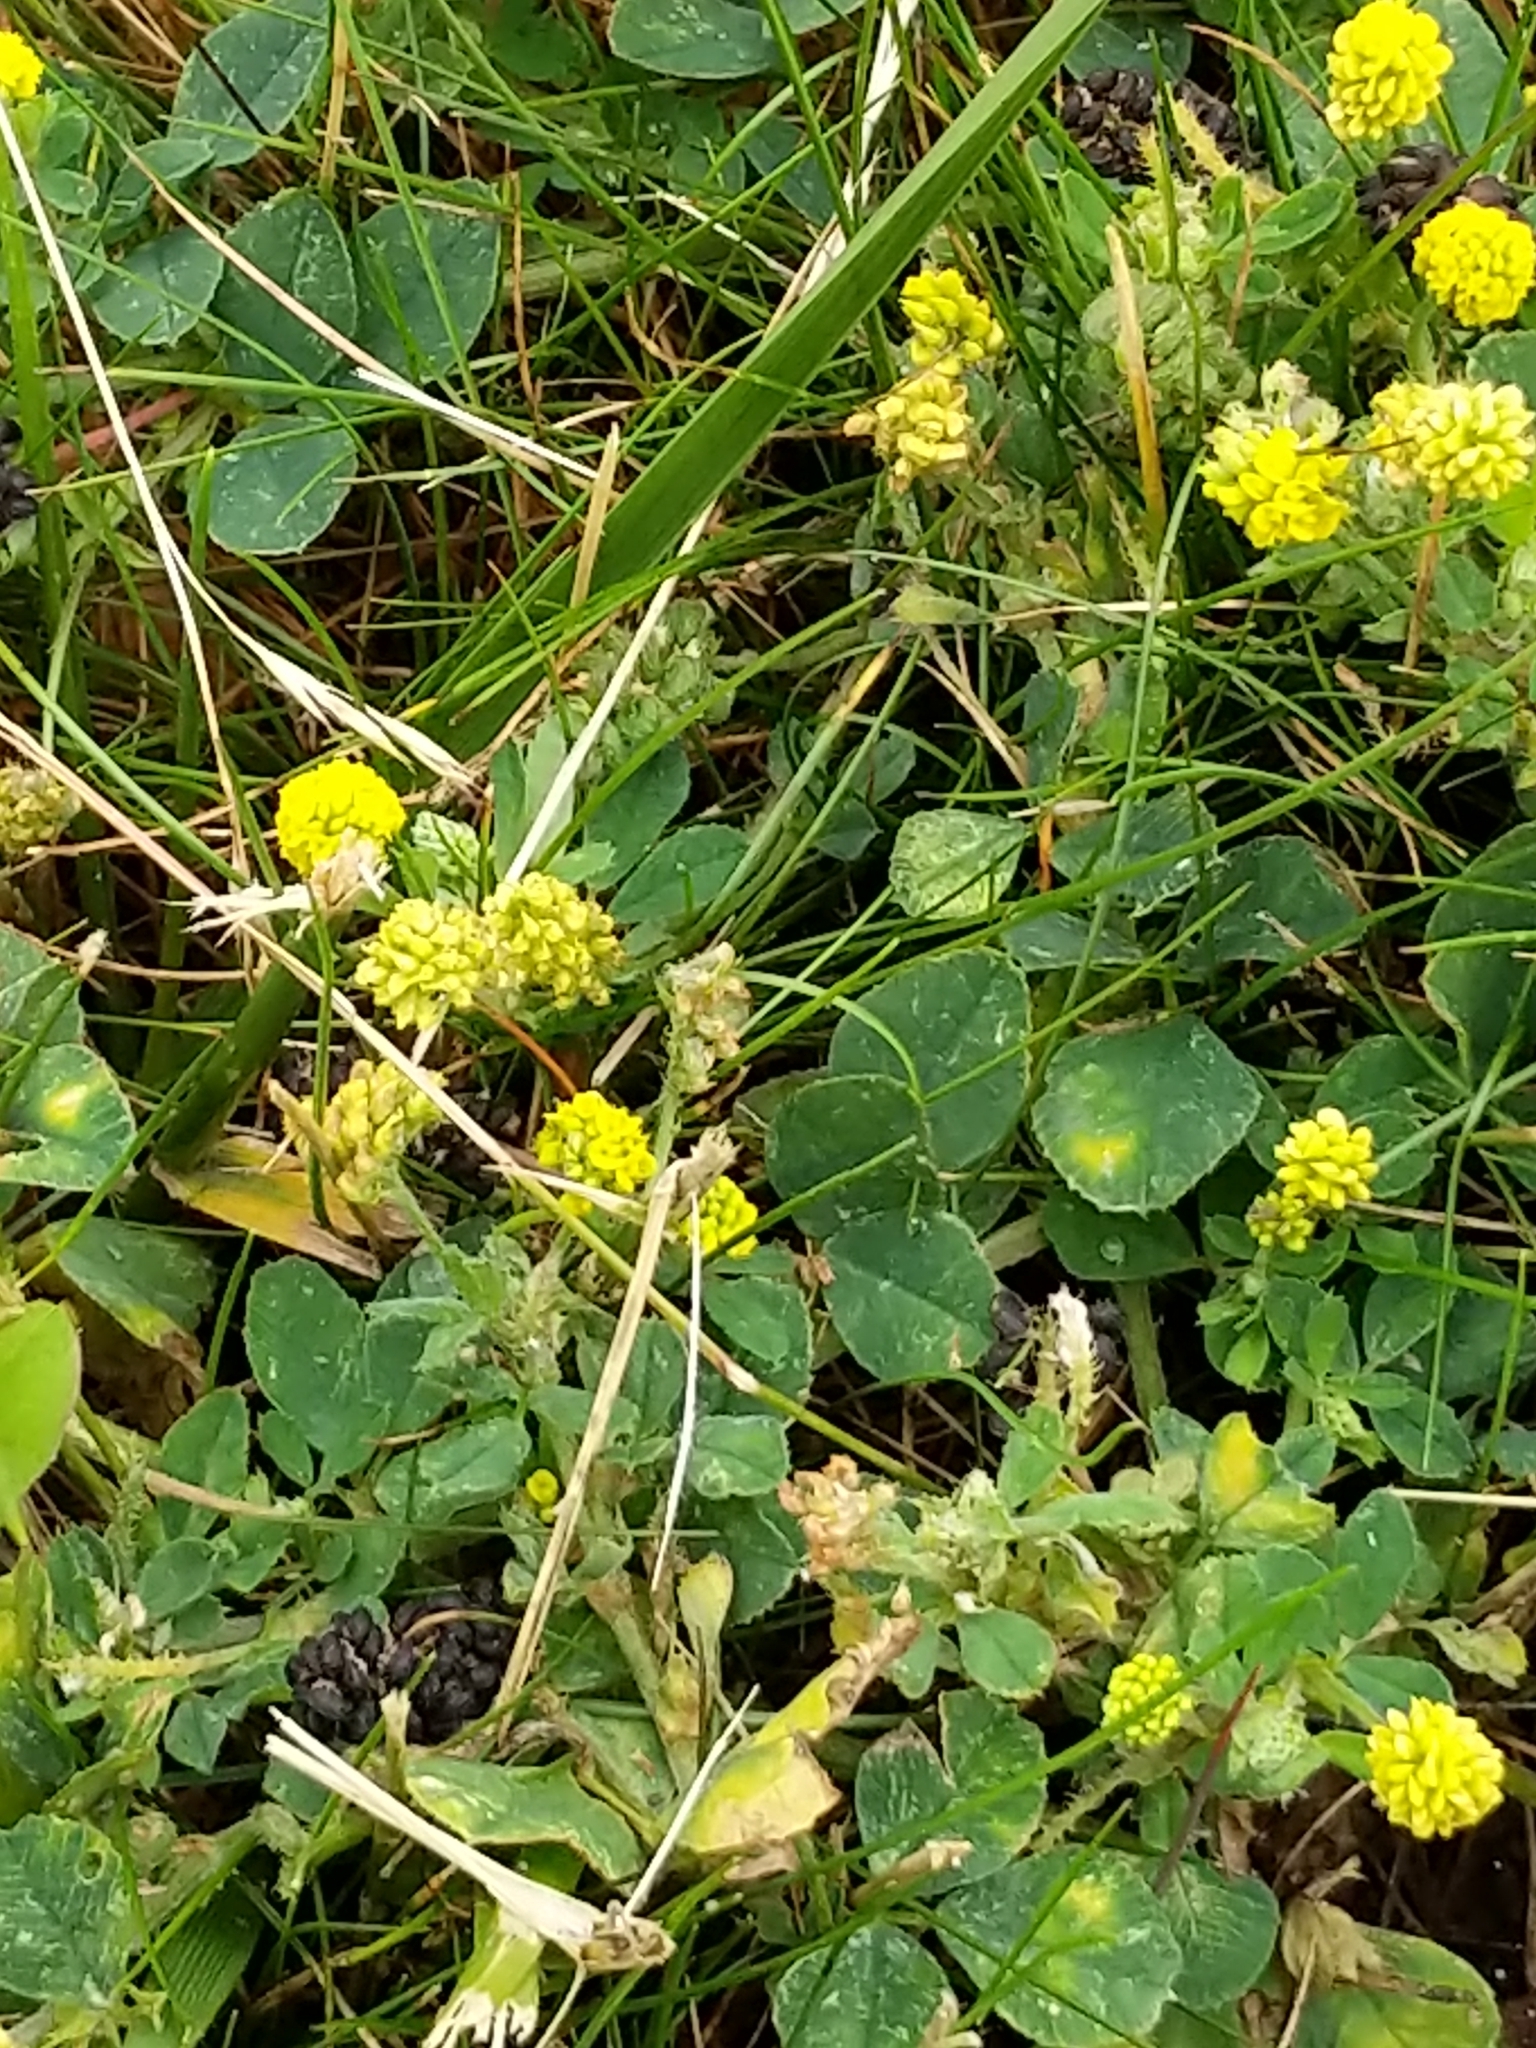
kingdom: Plantae
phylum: Tracheophyta
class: Magnoliopsida
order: Fabales
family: Fabaceae
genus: Medicago
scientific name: Medicago lupulina
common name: Black medick
